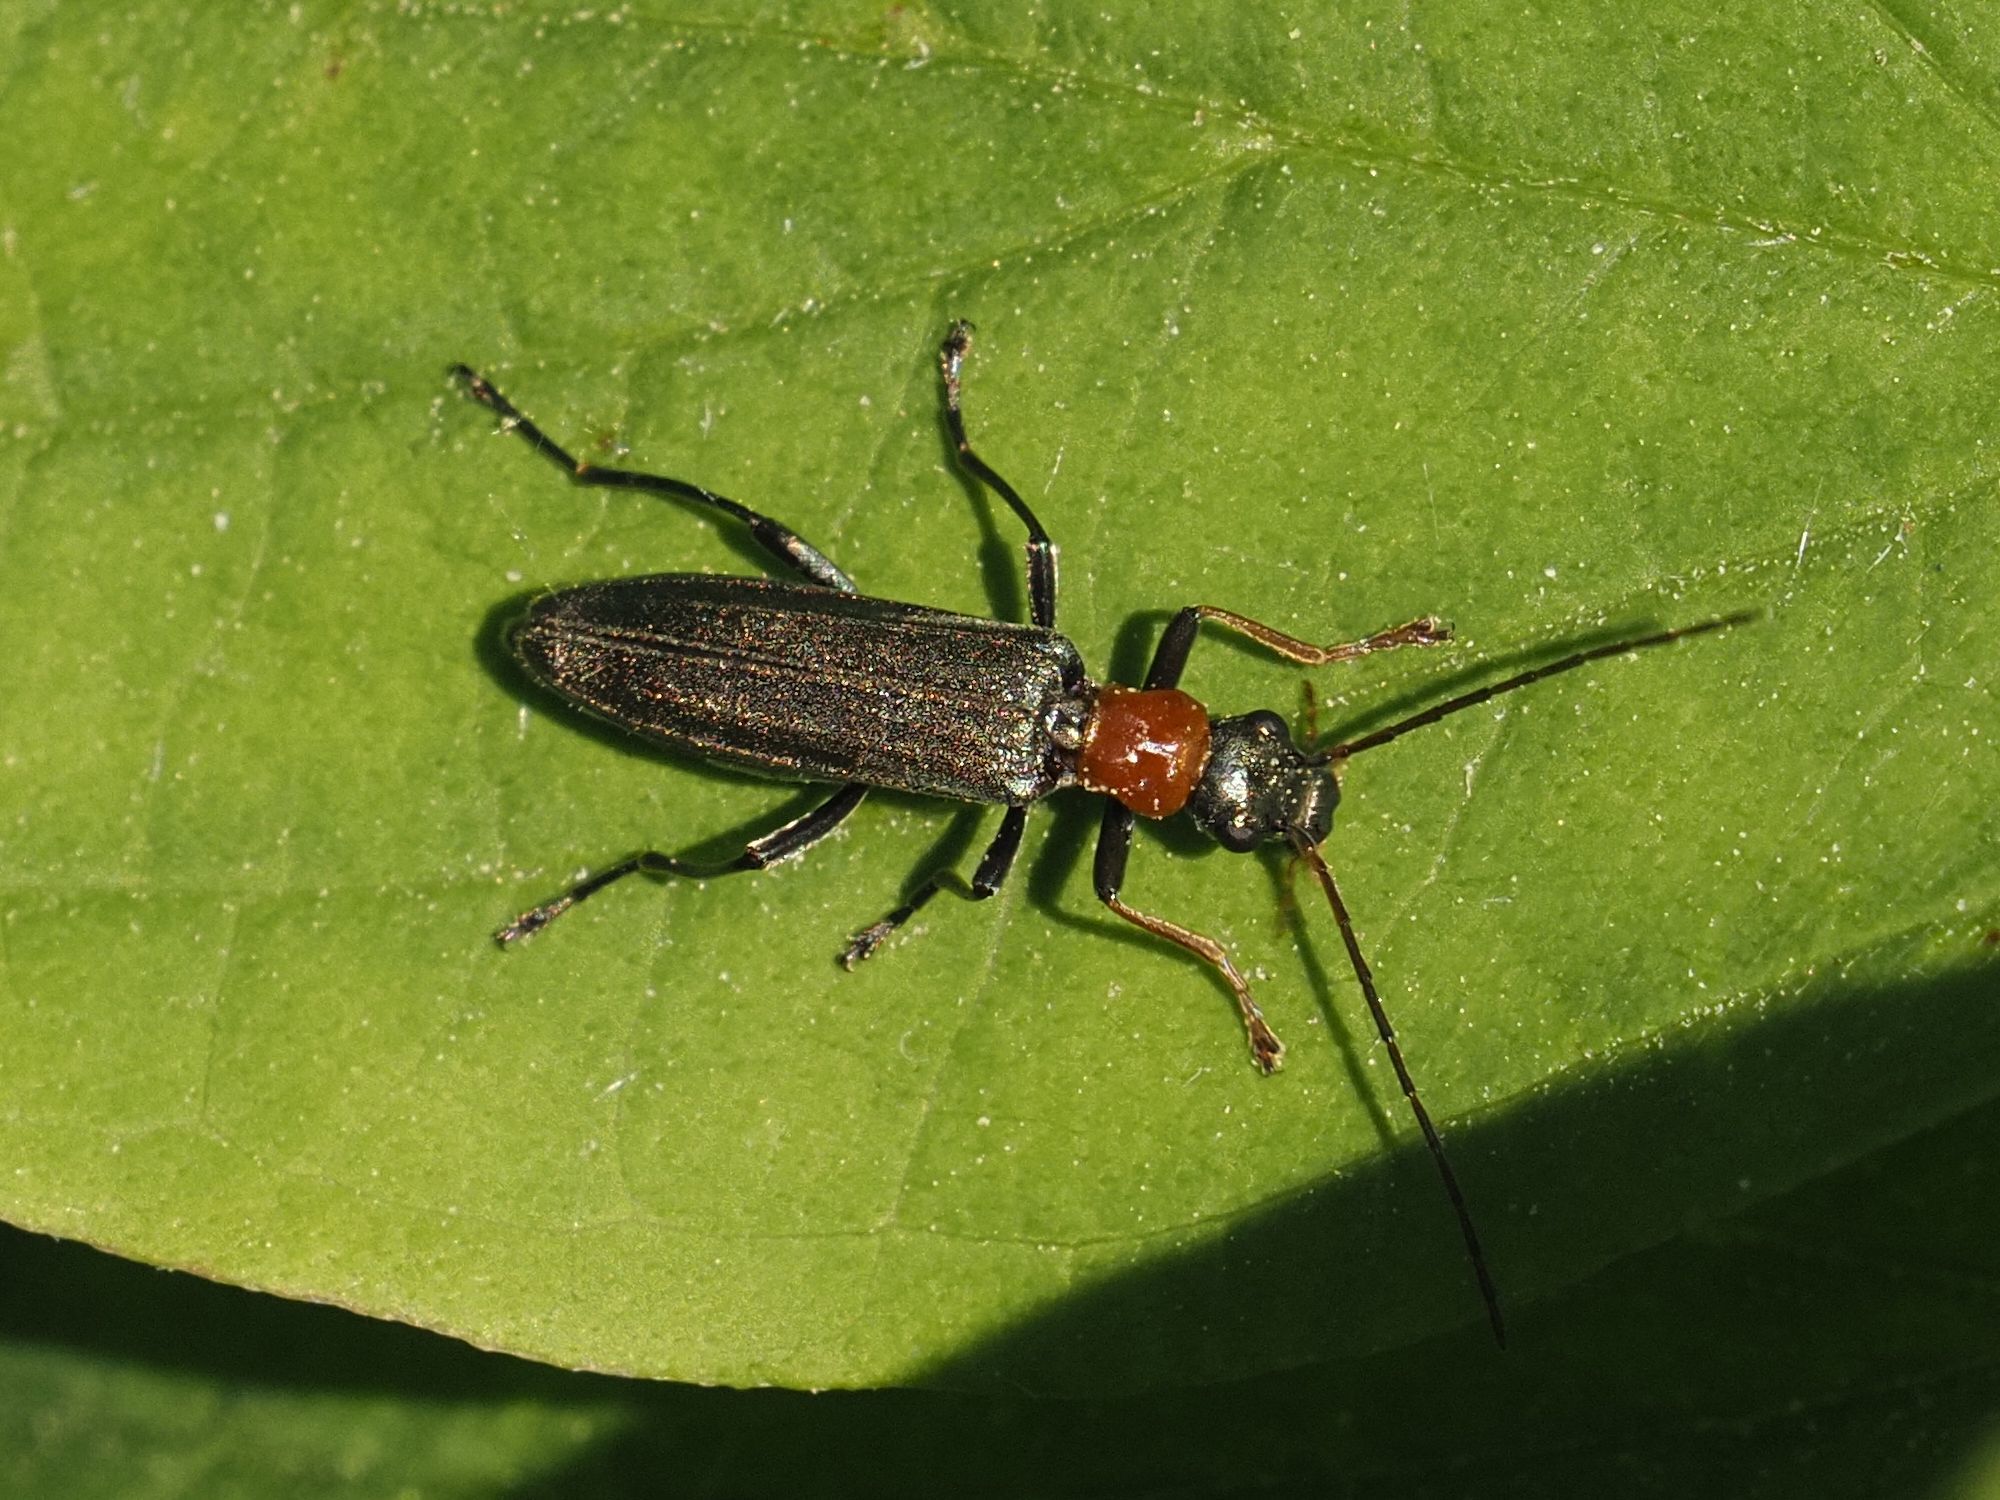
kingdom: Animalia
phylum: Arthropoda
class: Insecta
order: Coleoptera
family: Oedemeridae
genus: Oedemera
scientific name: Oedemera croceicollis
